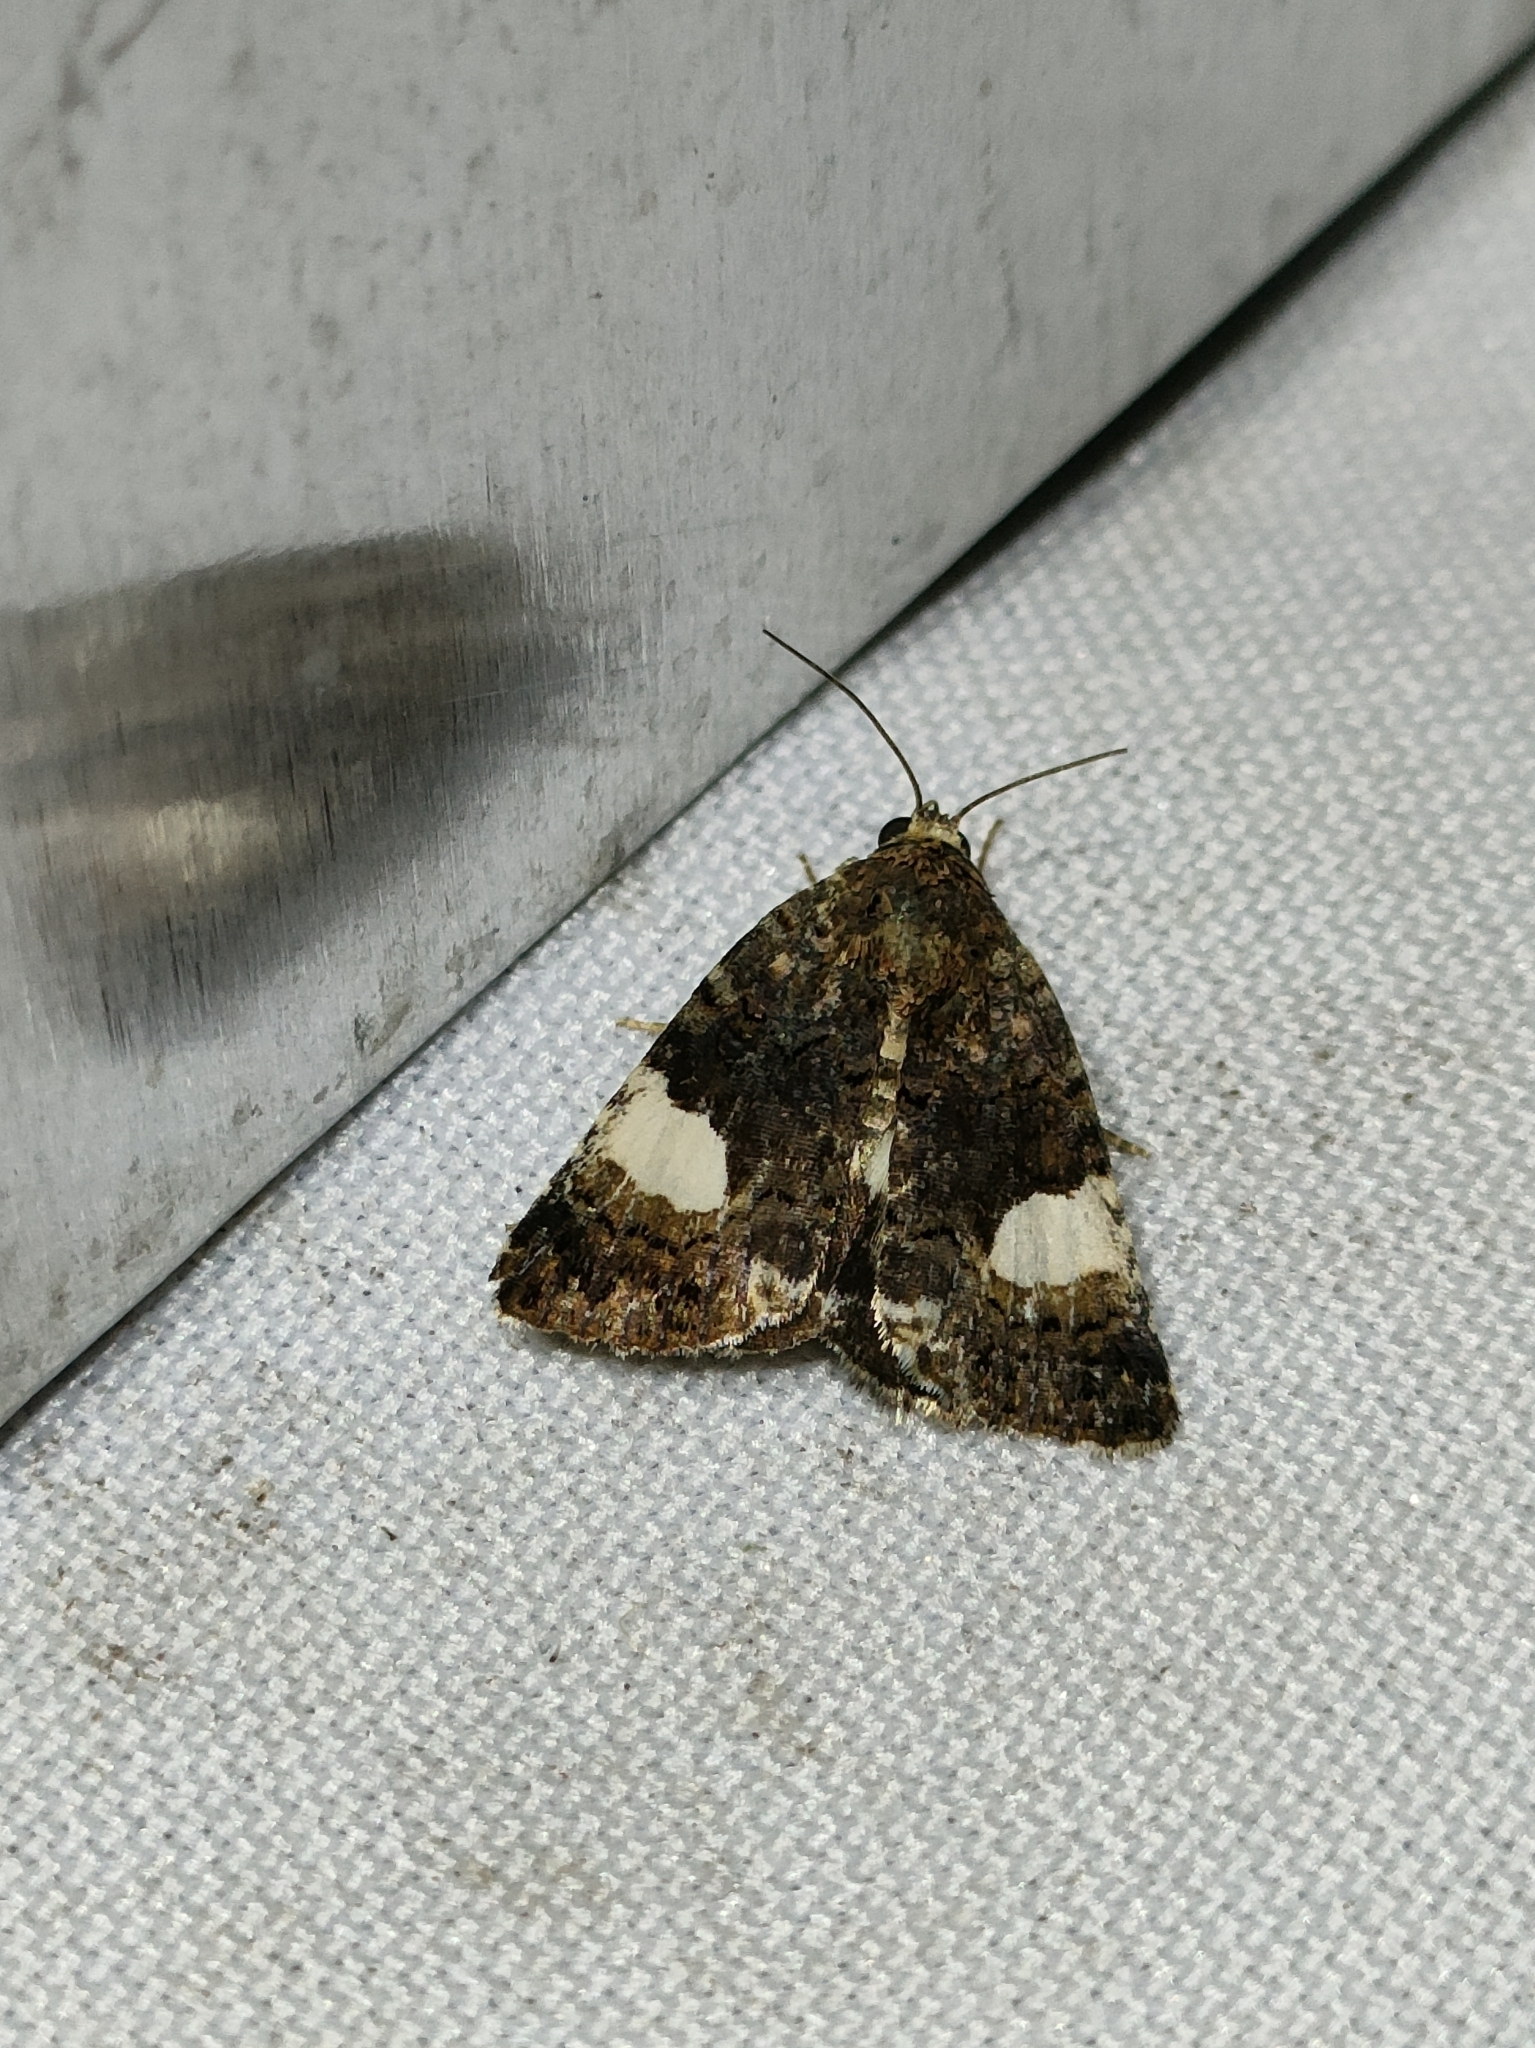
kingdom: Animalia
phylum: Arthropoda
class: Insecta
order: Lepidoptera
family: Erebidae
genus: Tyta
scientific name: Tyta luctuosa
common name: Four-spotted
